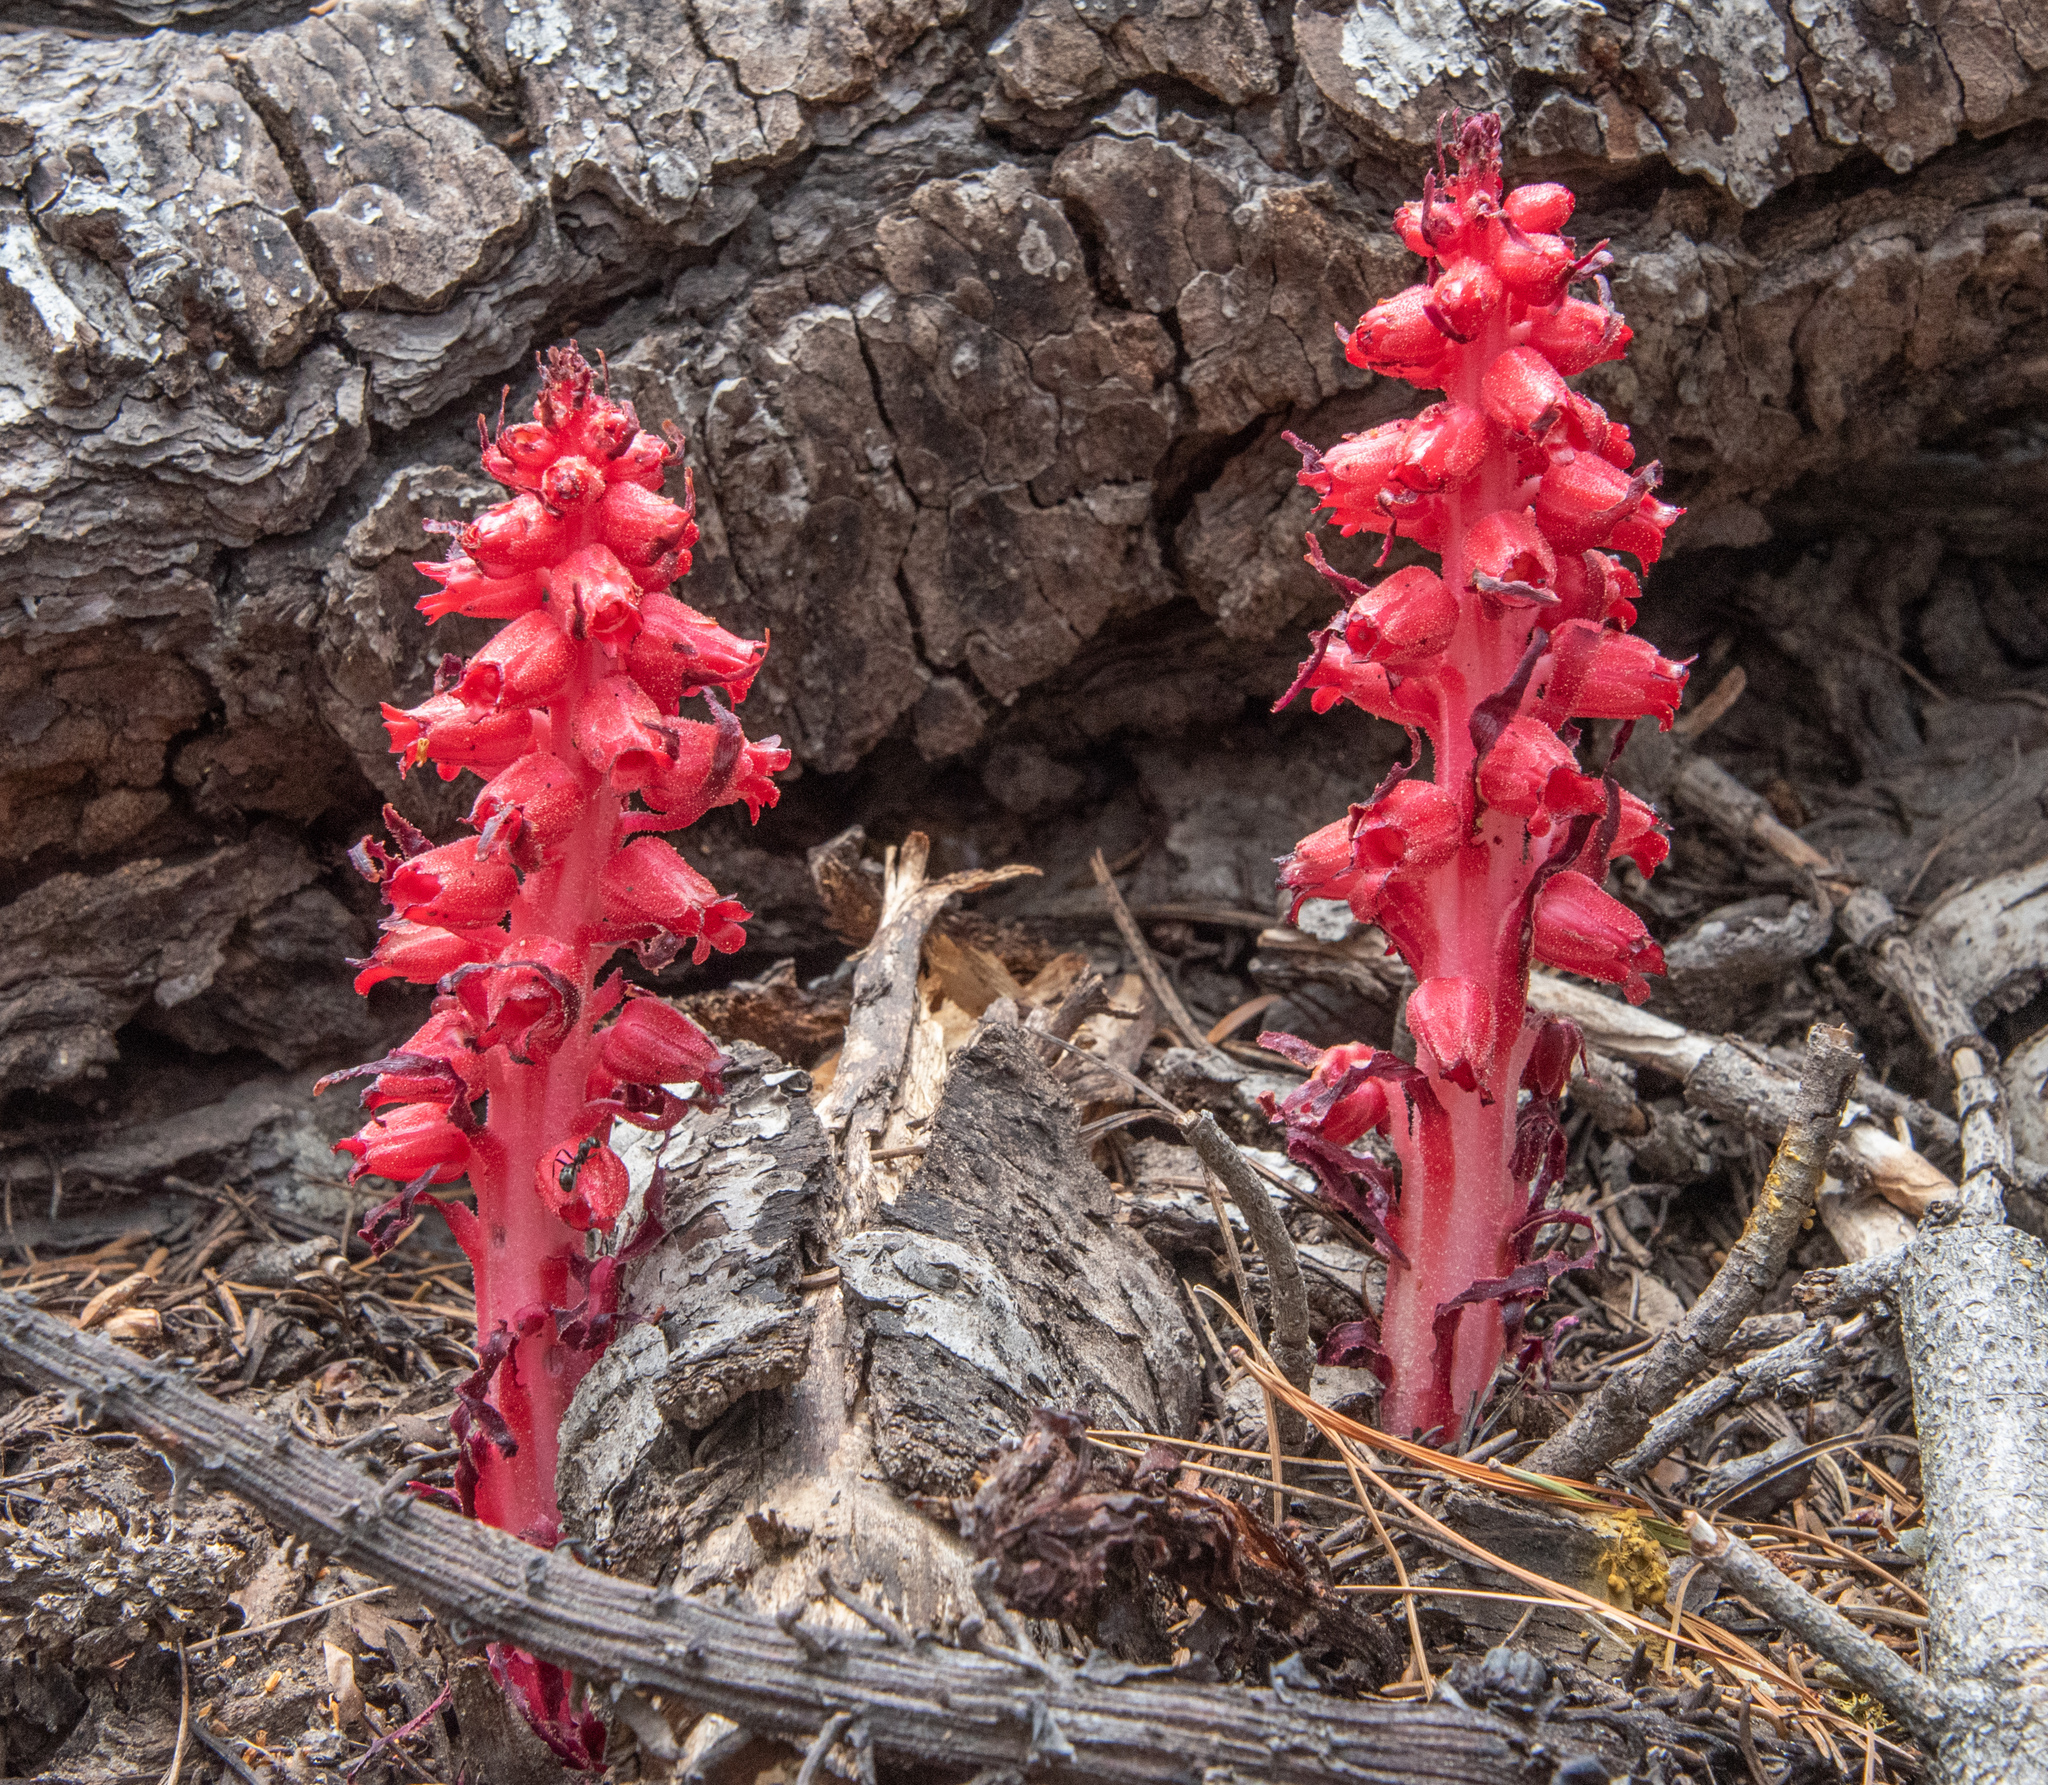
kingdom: Plantae
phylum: Tracheophyta
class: Magnoliopsida
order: Ericales
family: Ericaceae
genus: Sarcodes
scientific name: Sarcodes sanguinea
